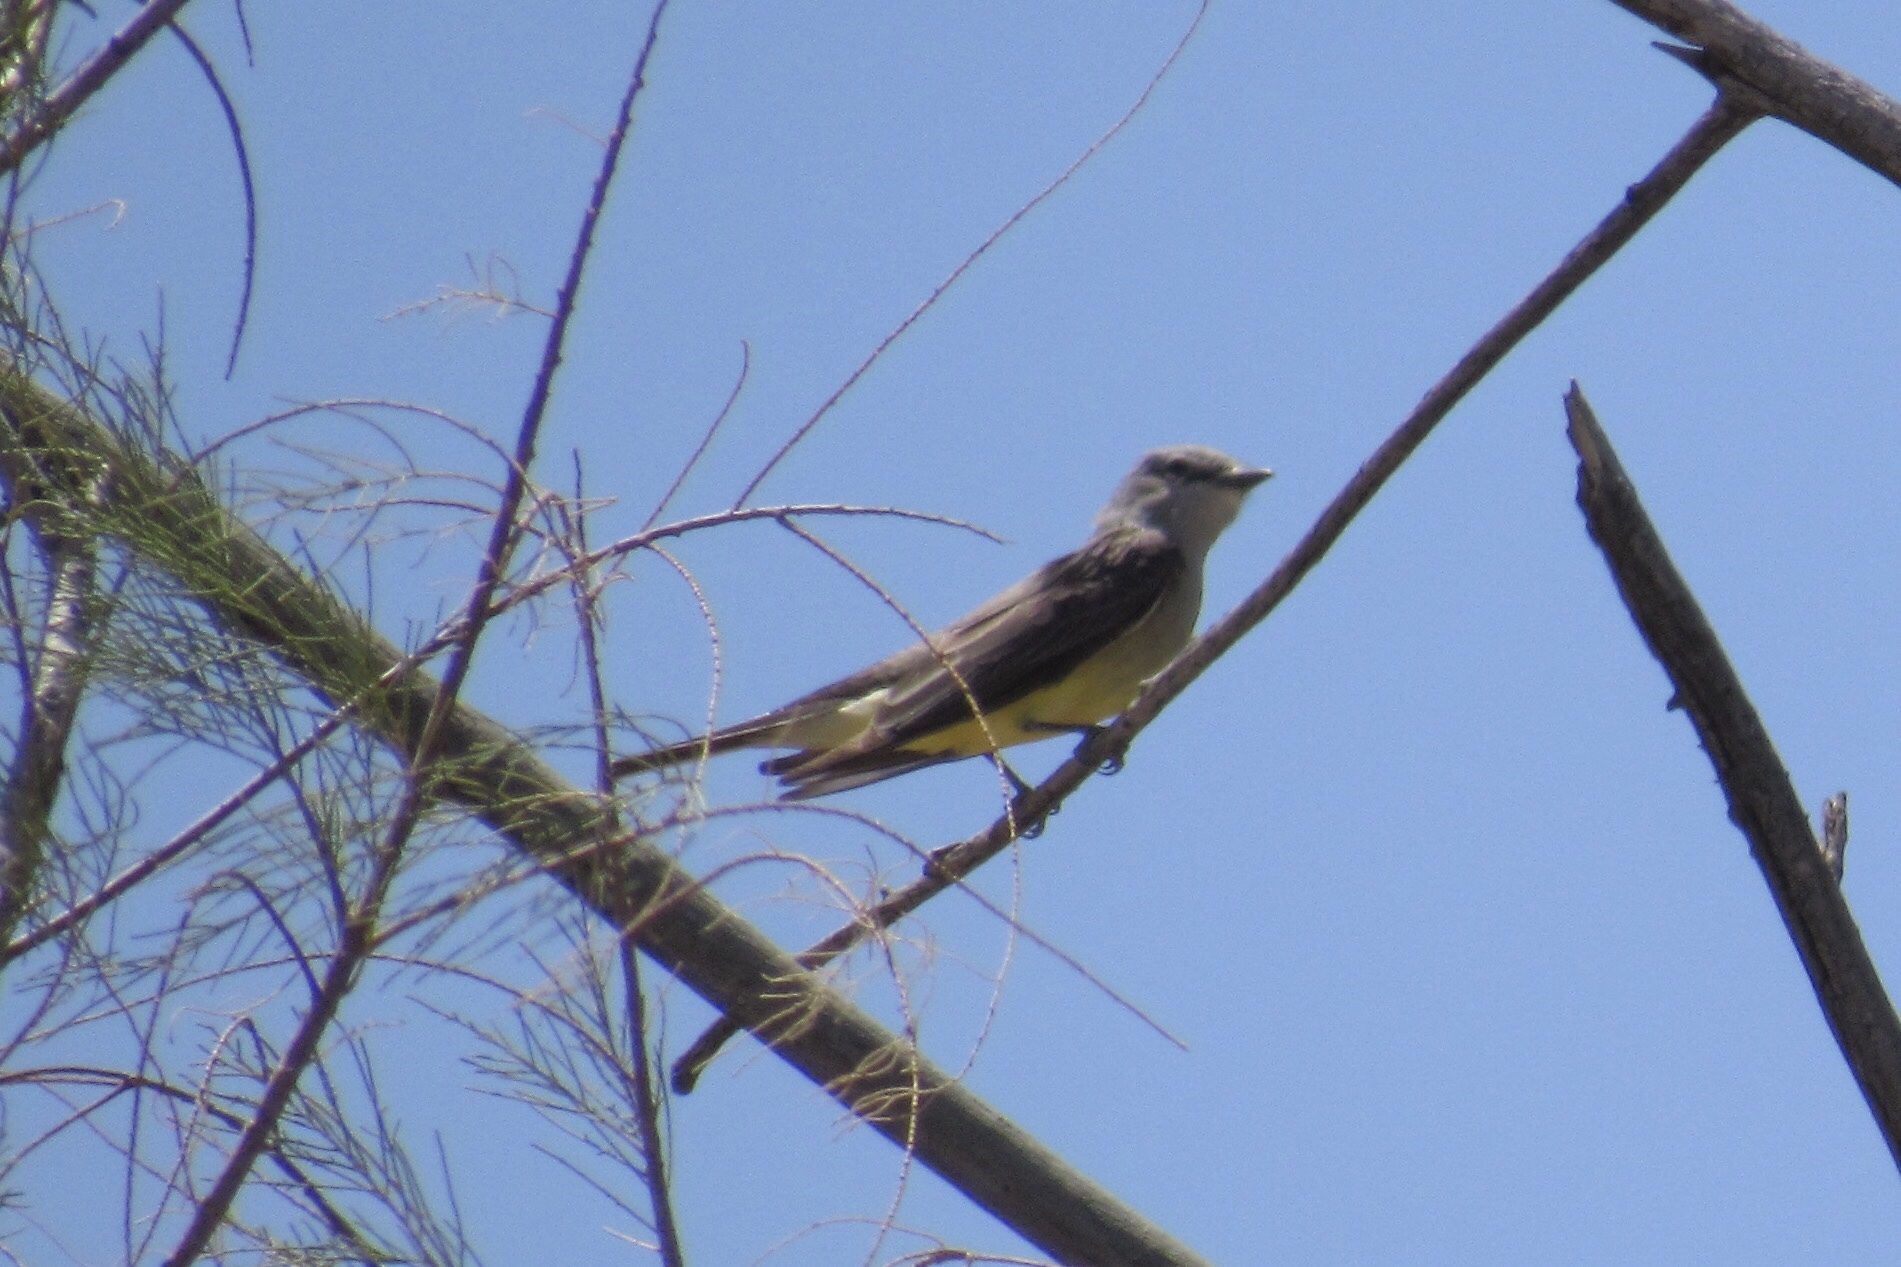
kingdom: Animalia
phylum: Chordata
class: Aves
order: Passeriformes
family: Tyrannidae
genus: Tyrannus
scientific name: Tyrannus verticalis
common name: Western kingbird
